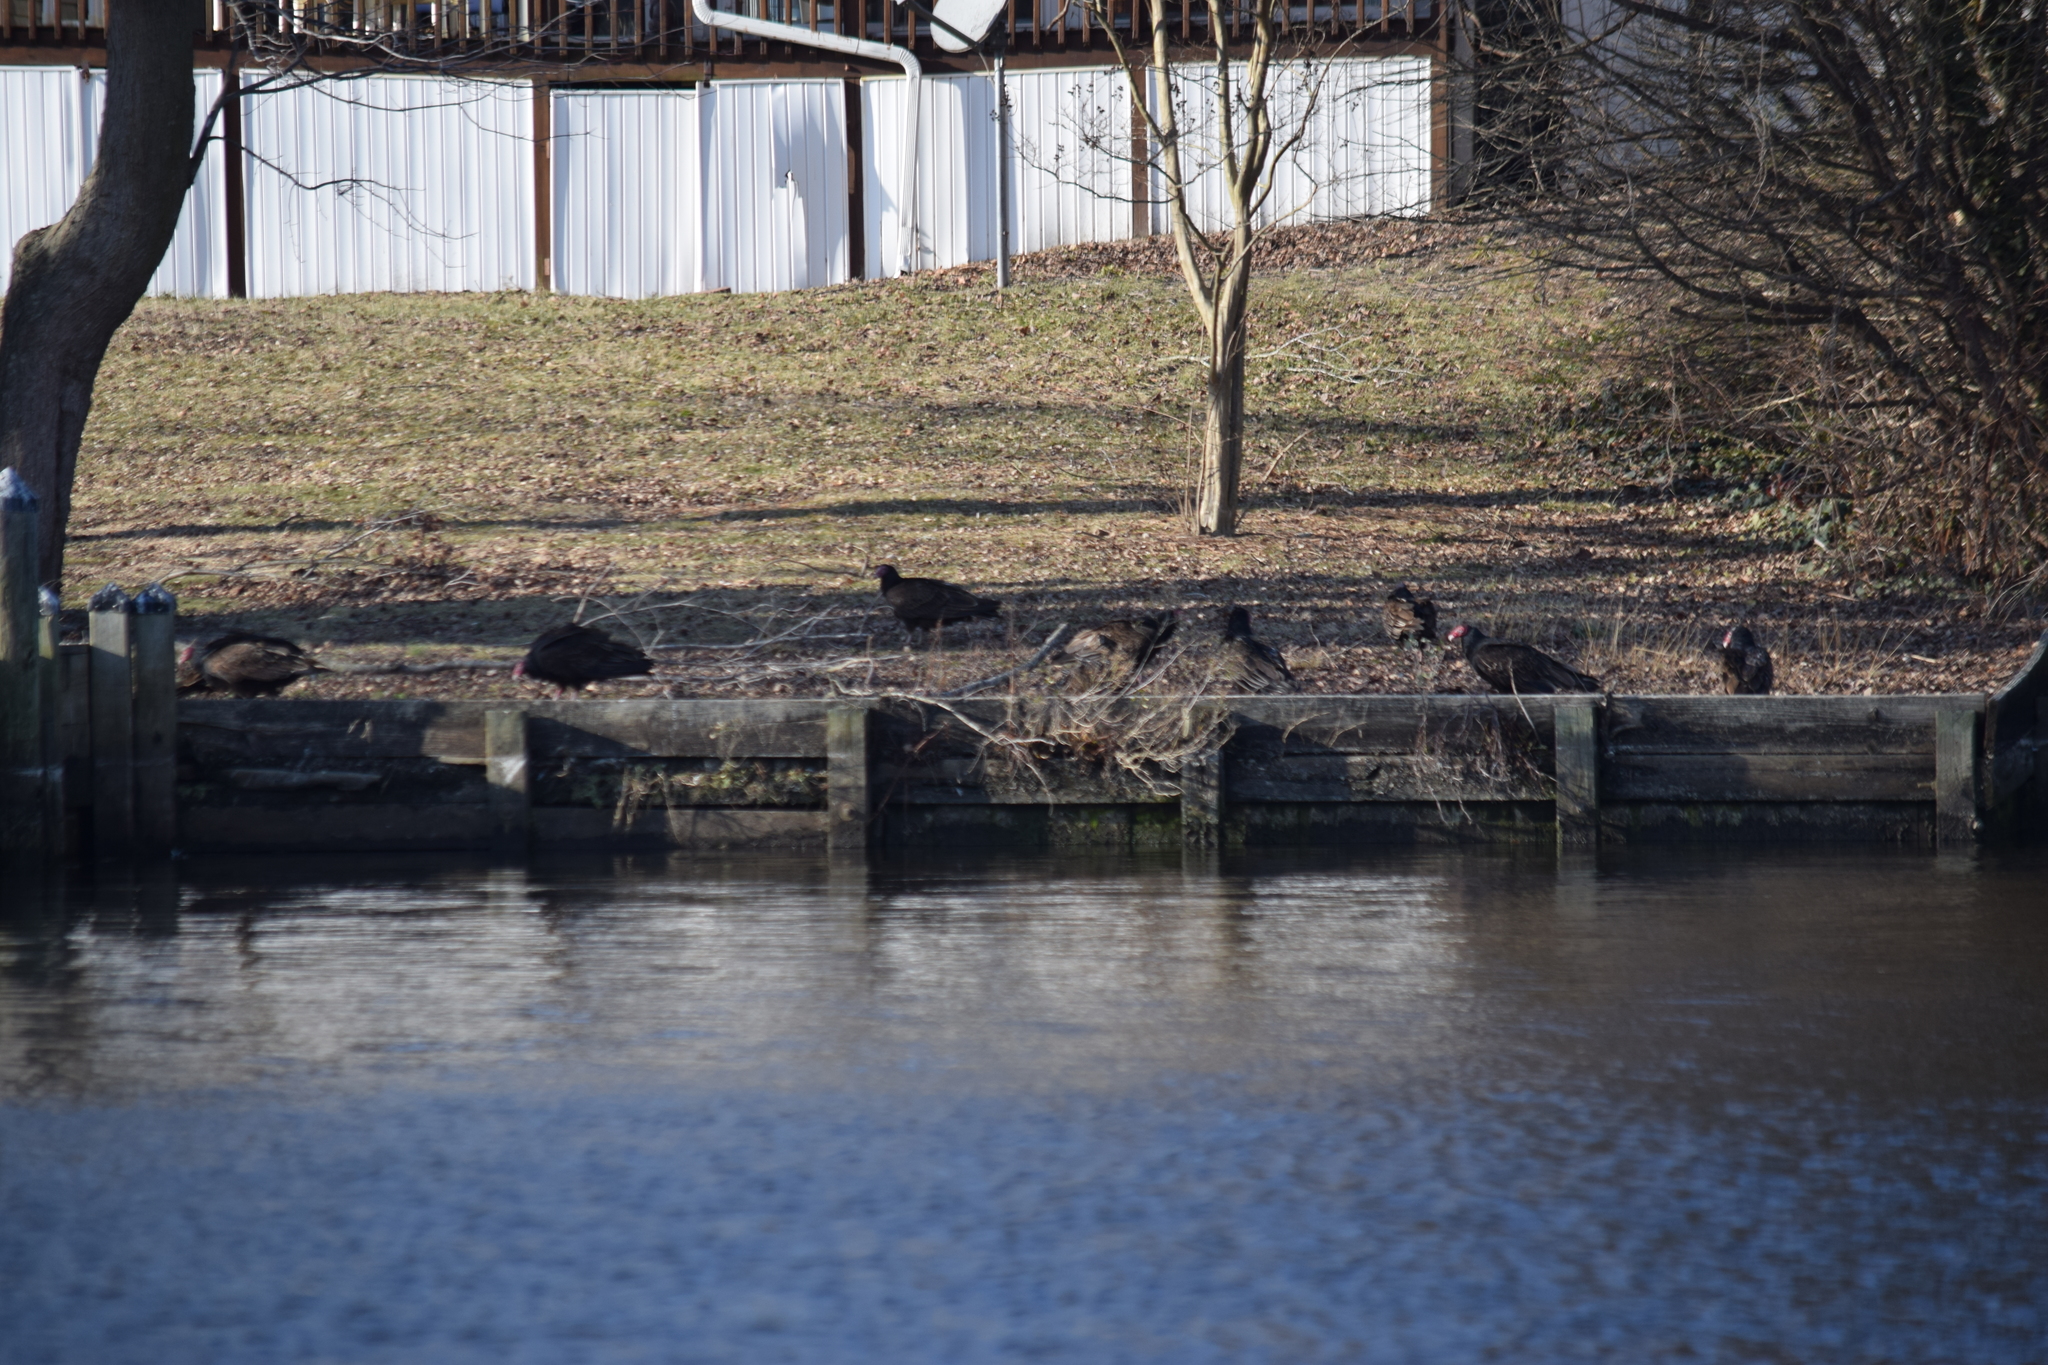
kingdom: Animalia
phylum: Chordata
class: Aves
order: Accipitriformes
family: Cathartidae
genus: Cathartes
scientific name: Cathartes aura
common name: Turkey vulture
